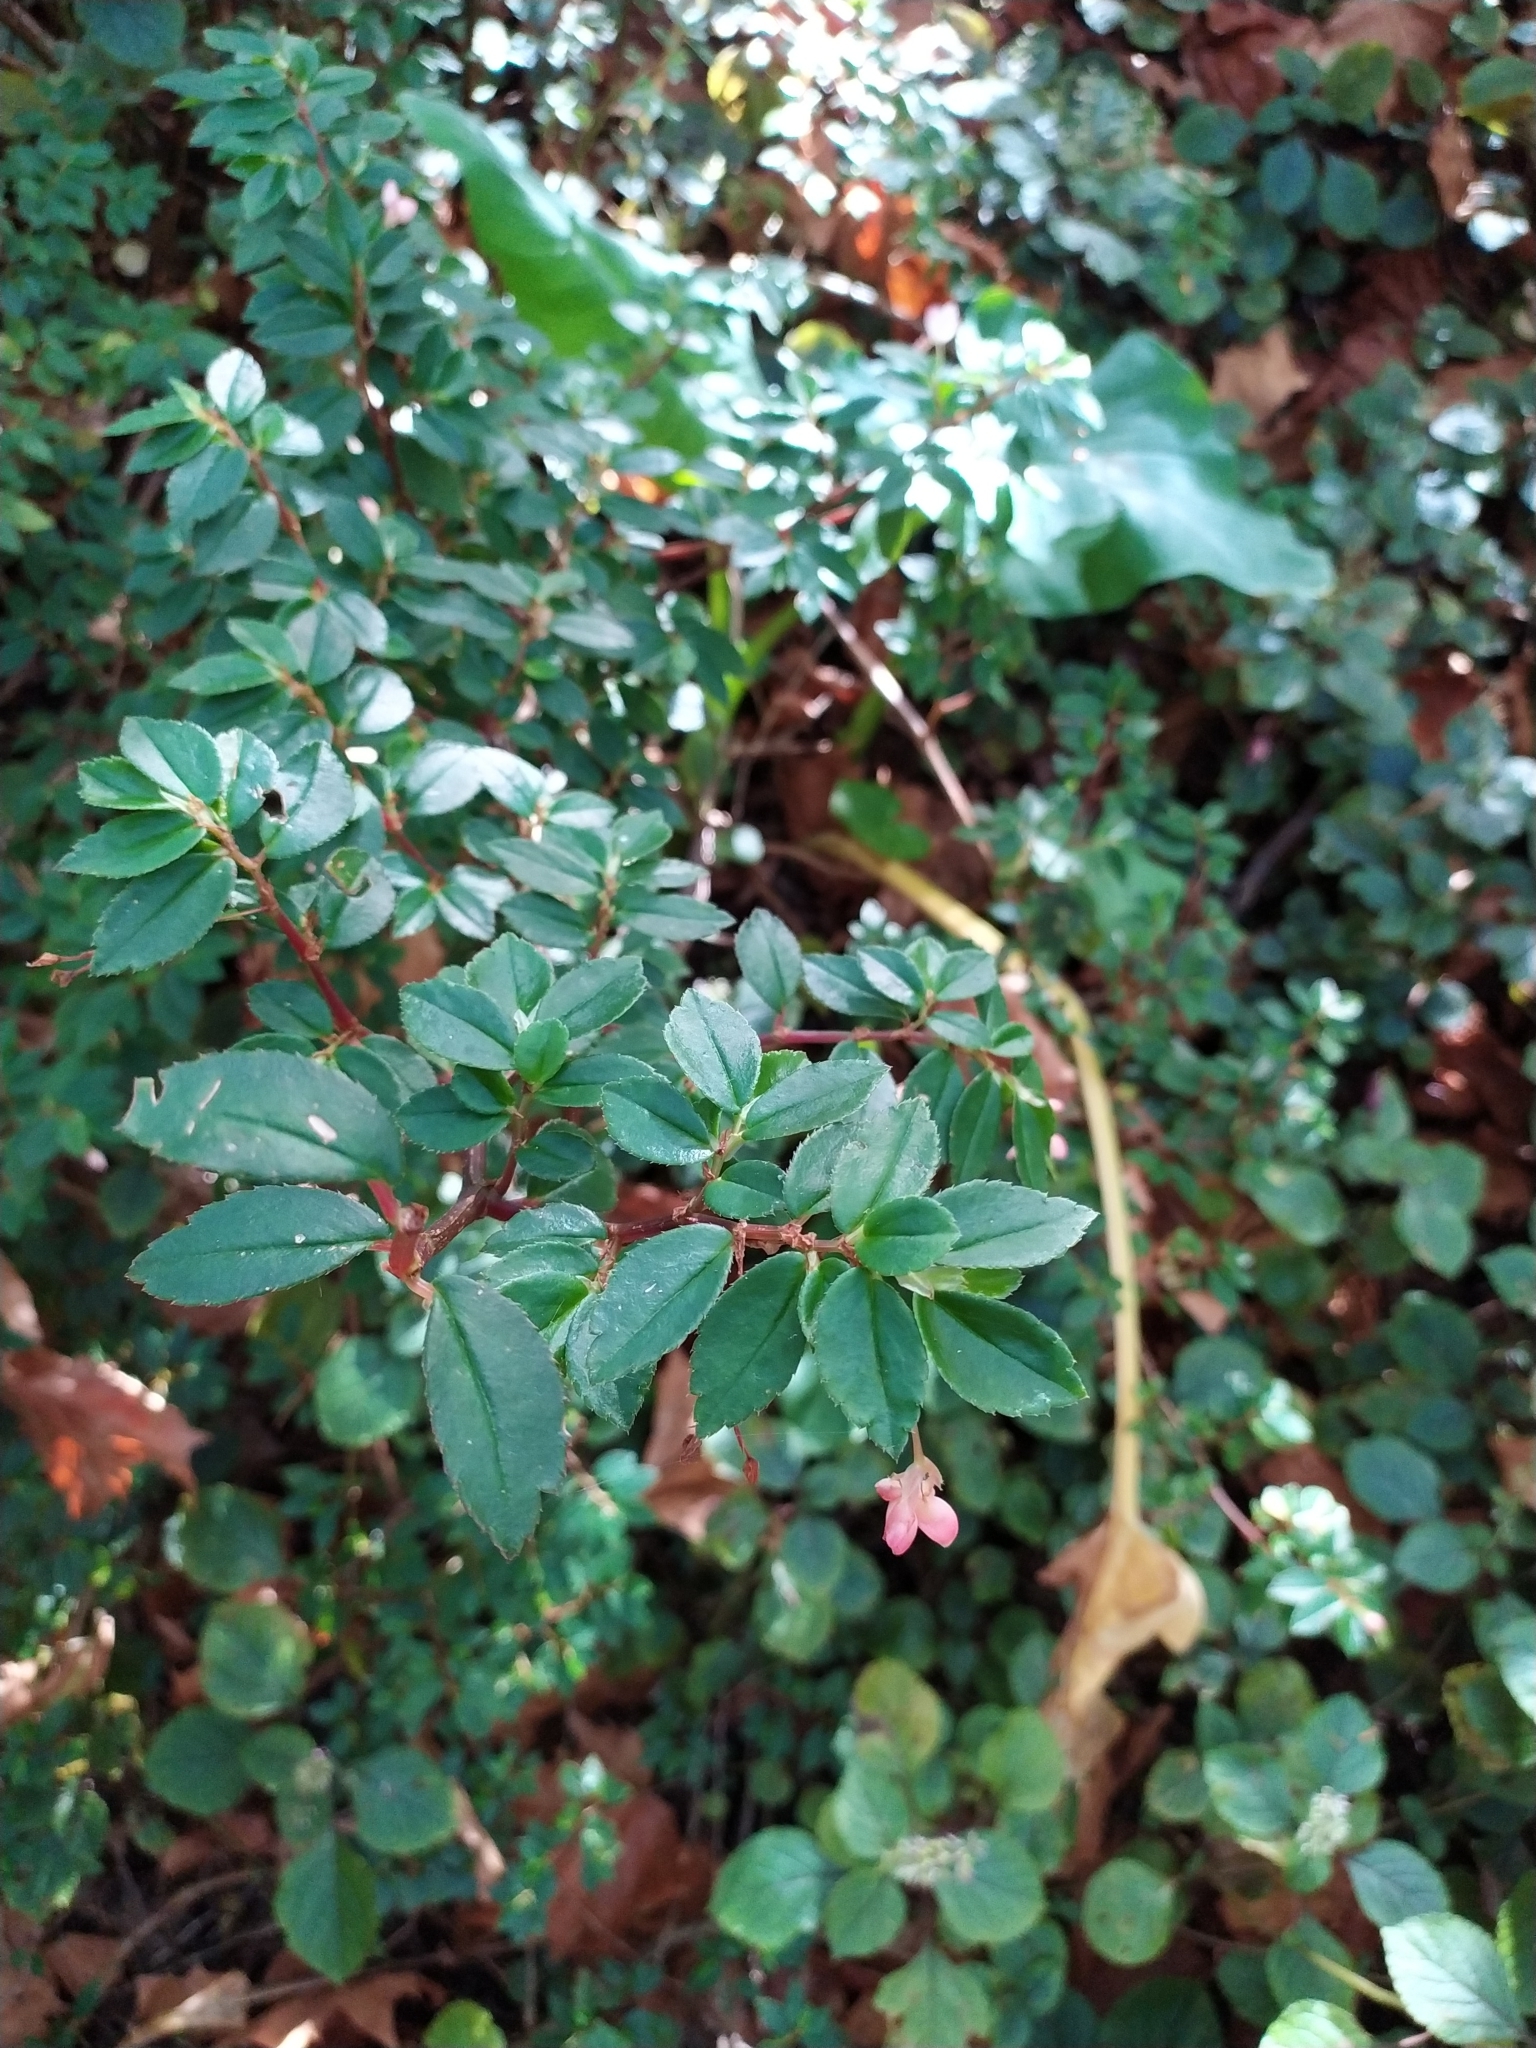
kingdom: Plantae
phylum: Tracheophyta
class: Magnoliopsida
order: Cucurbitales
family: Begoniaceae
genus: Begonia
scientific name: Begonia foliosa
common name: Fern begonia
